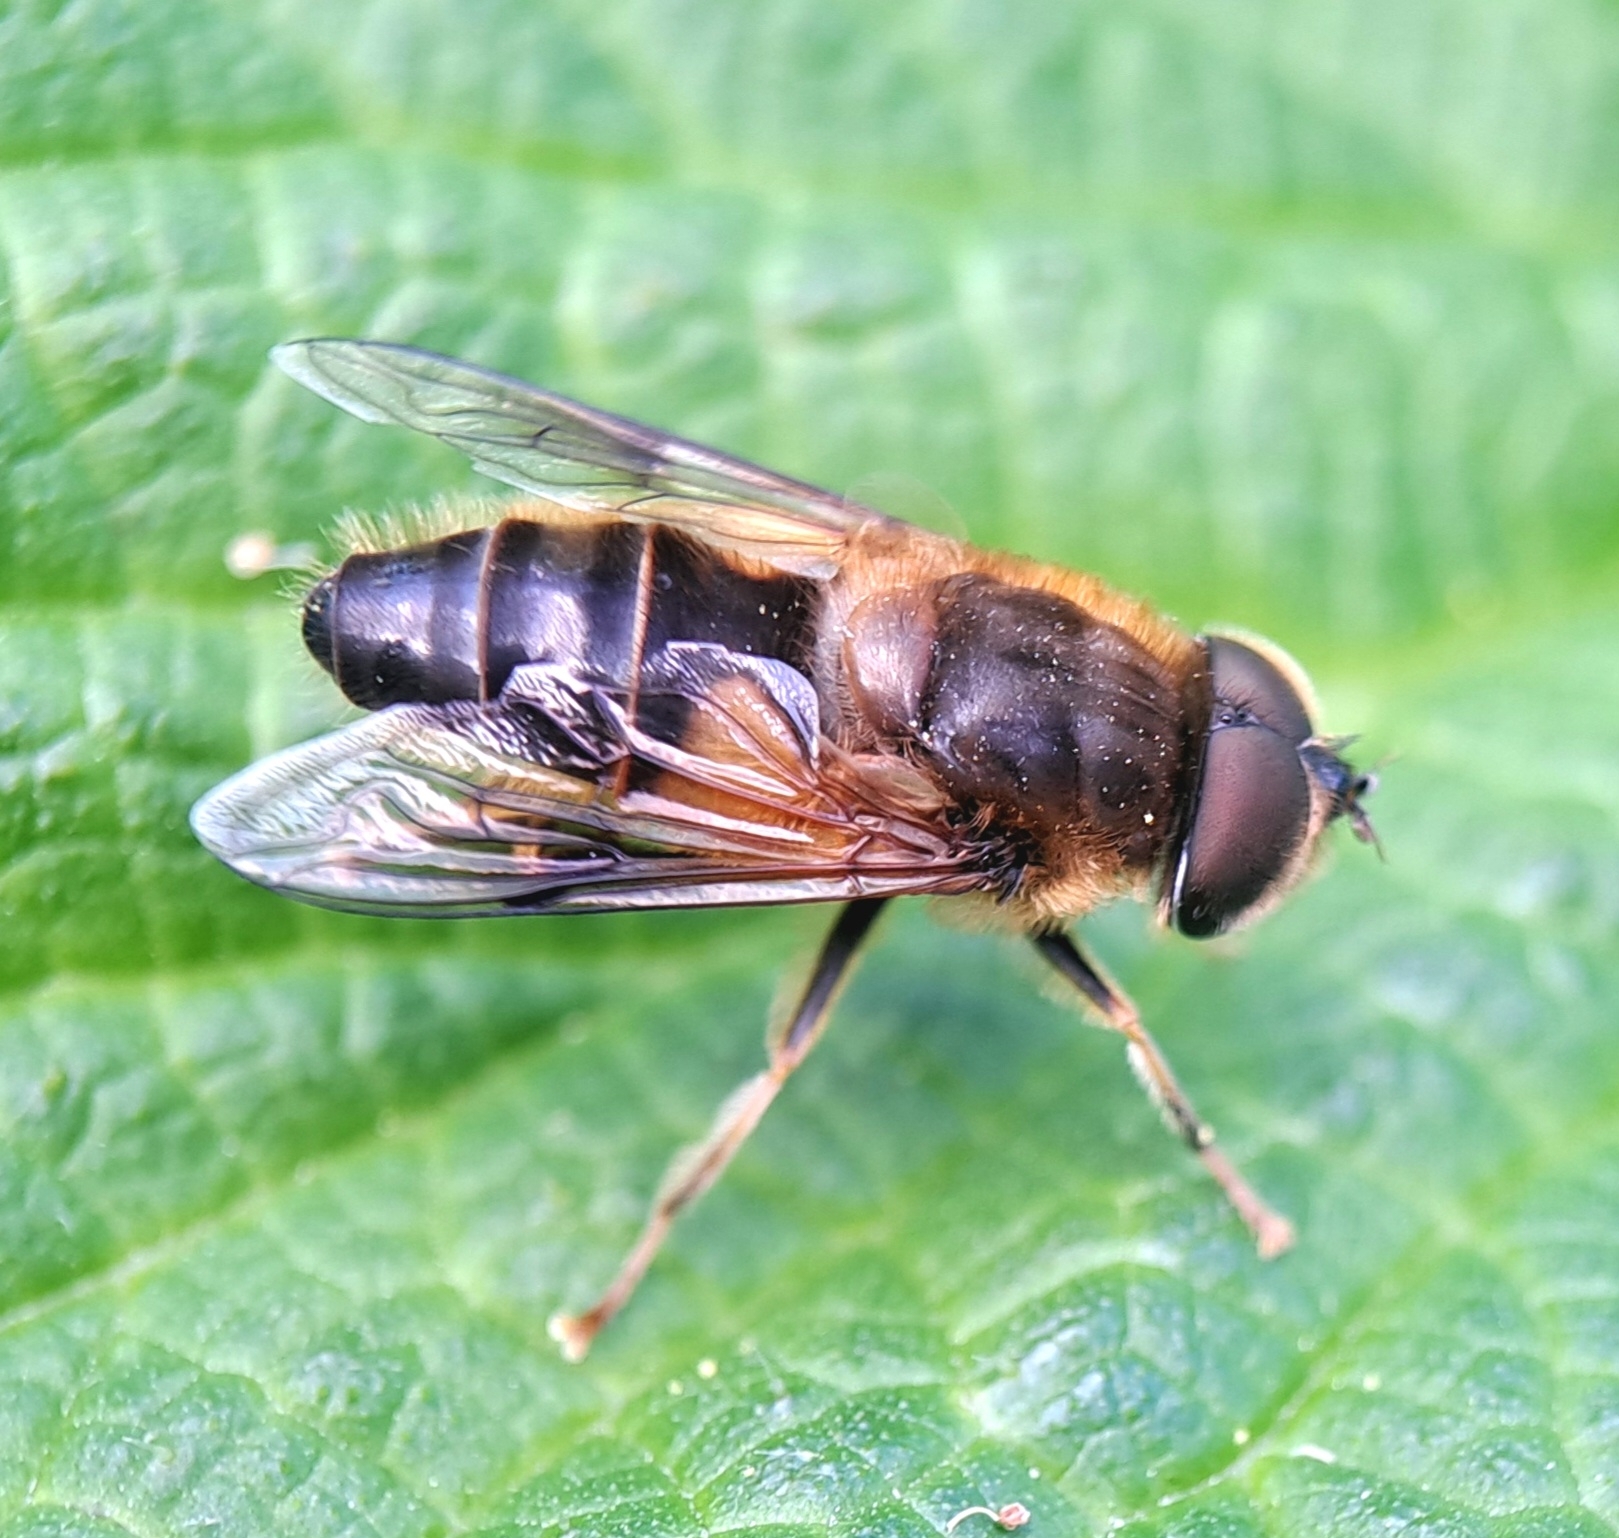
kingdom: Animalia
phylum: Arthropoda
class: Insecta
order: Diptera
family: Syrphidae
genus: Eristalis
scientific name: Eristalis pertinax
